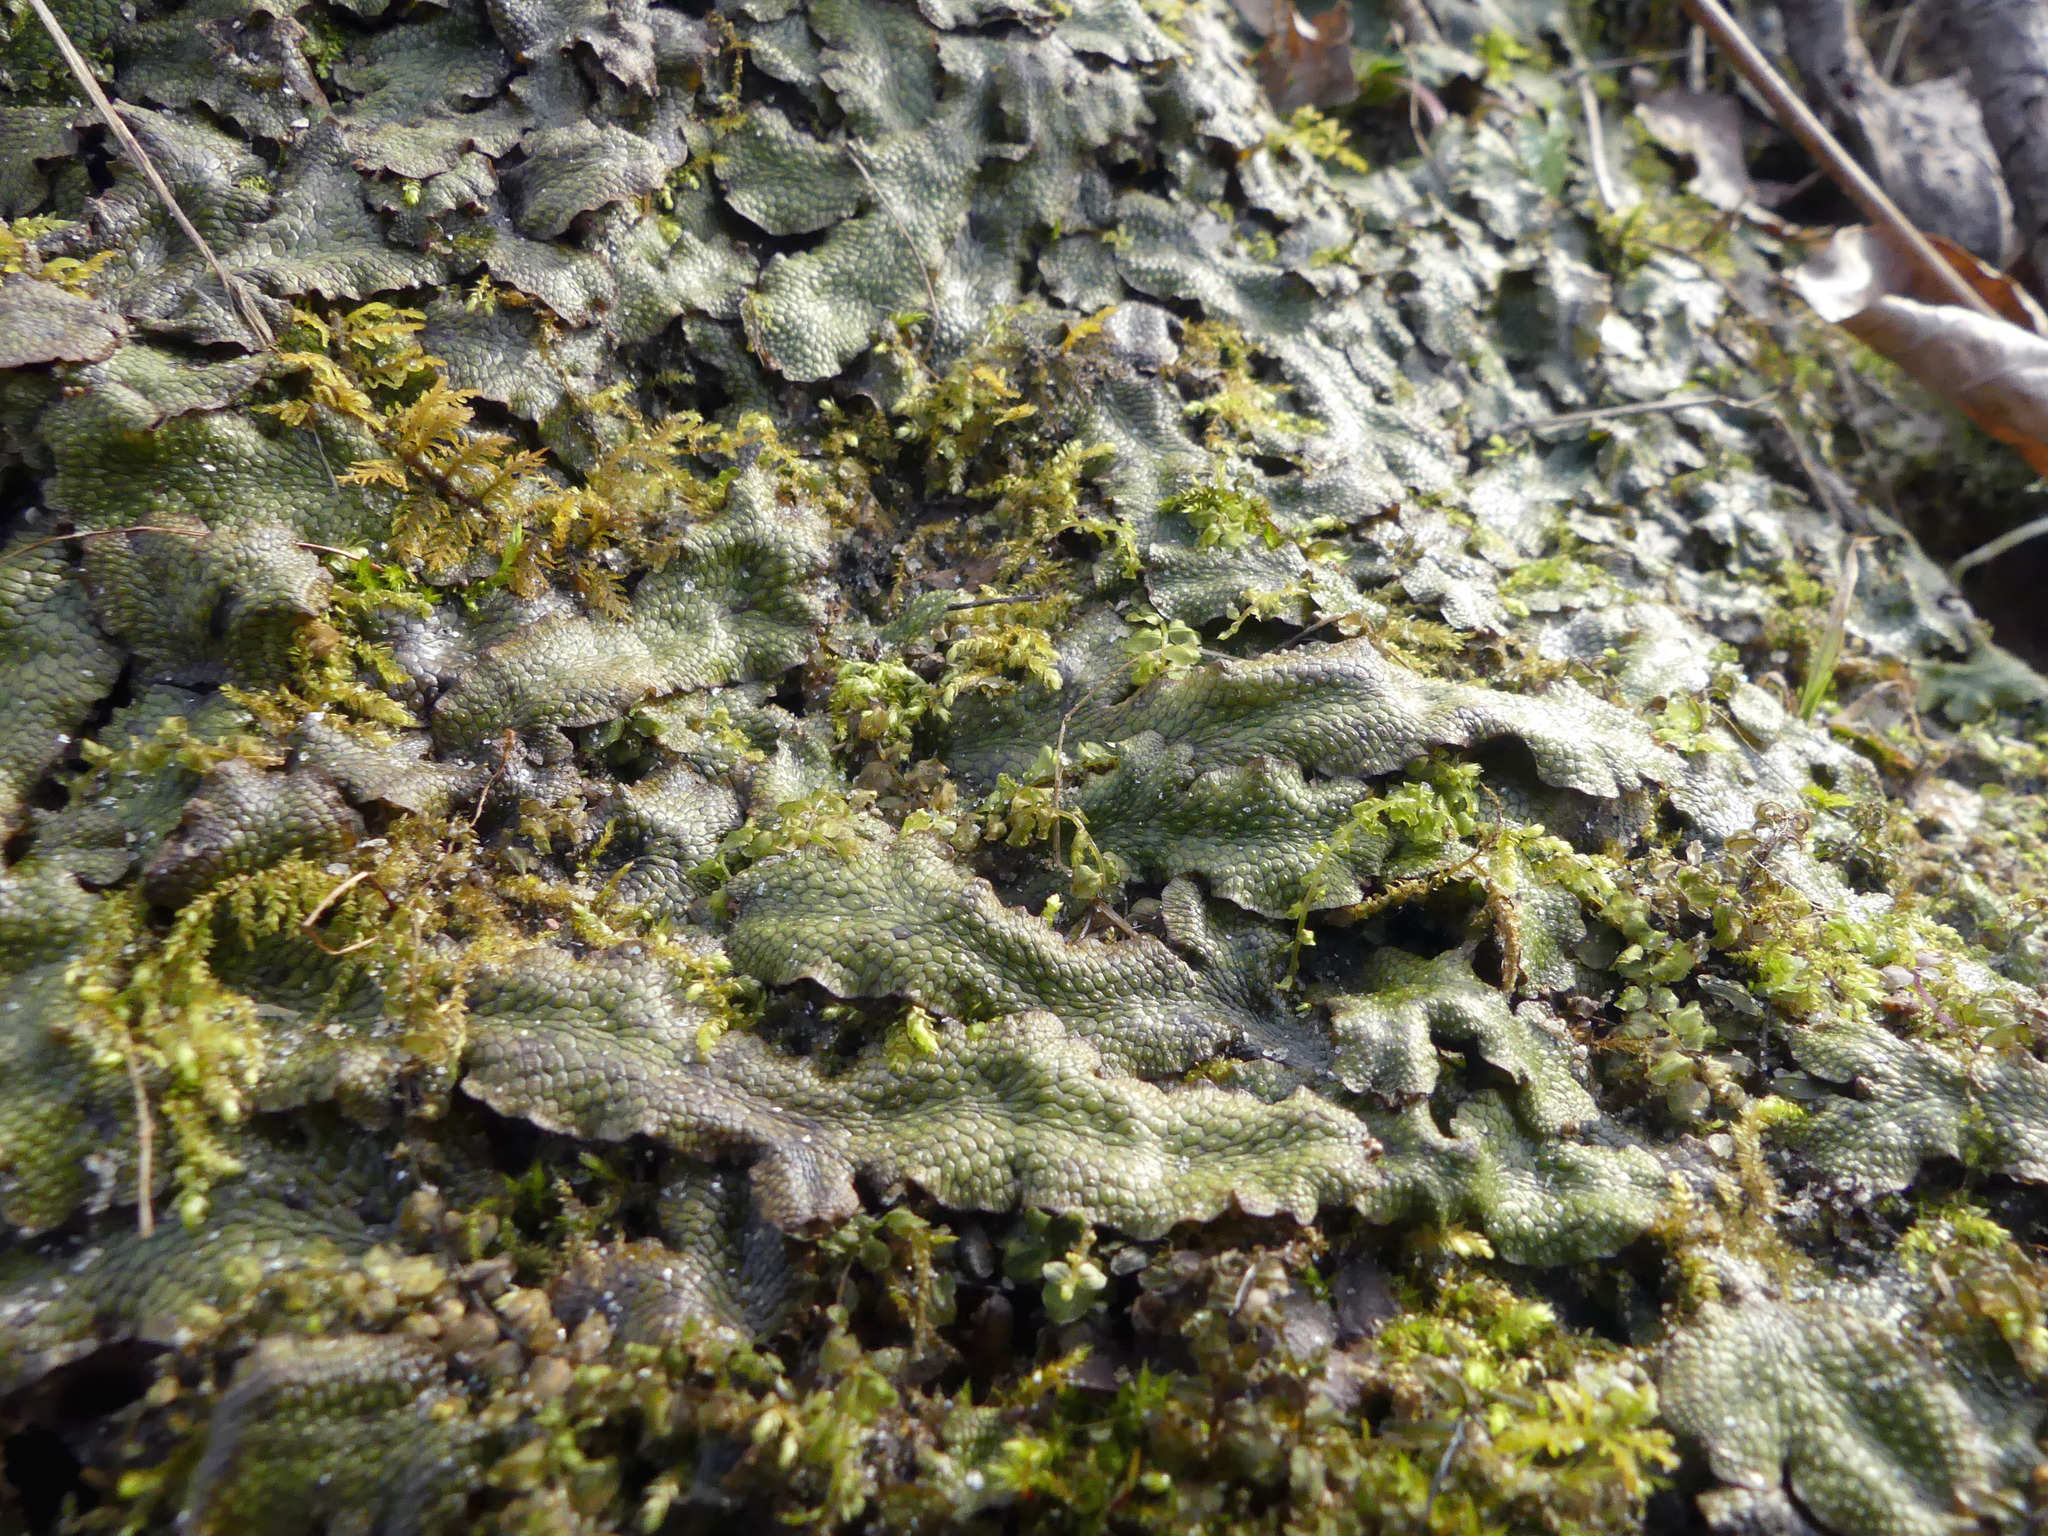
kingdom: Plantae
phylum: Marchantiophyta
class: Marchantiopsida
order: Marchantiales
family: Conocephalaceae
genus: Conocephalum
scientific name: Conocephalum salebrosum
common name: Cat-tongue liverwort
